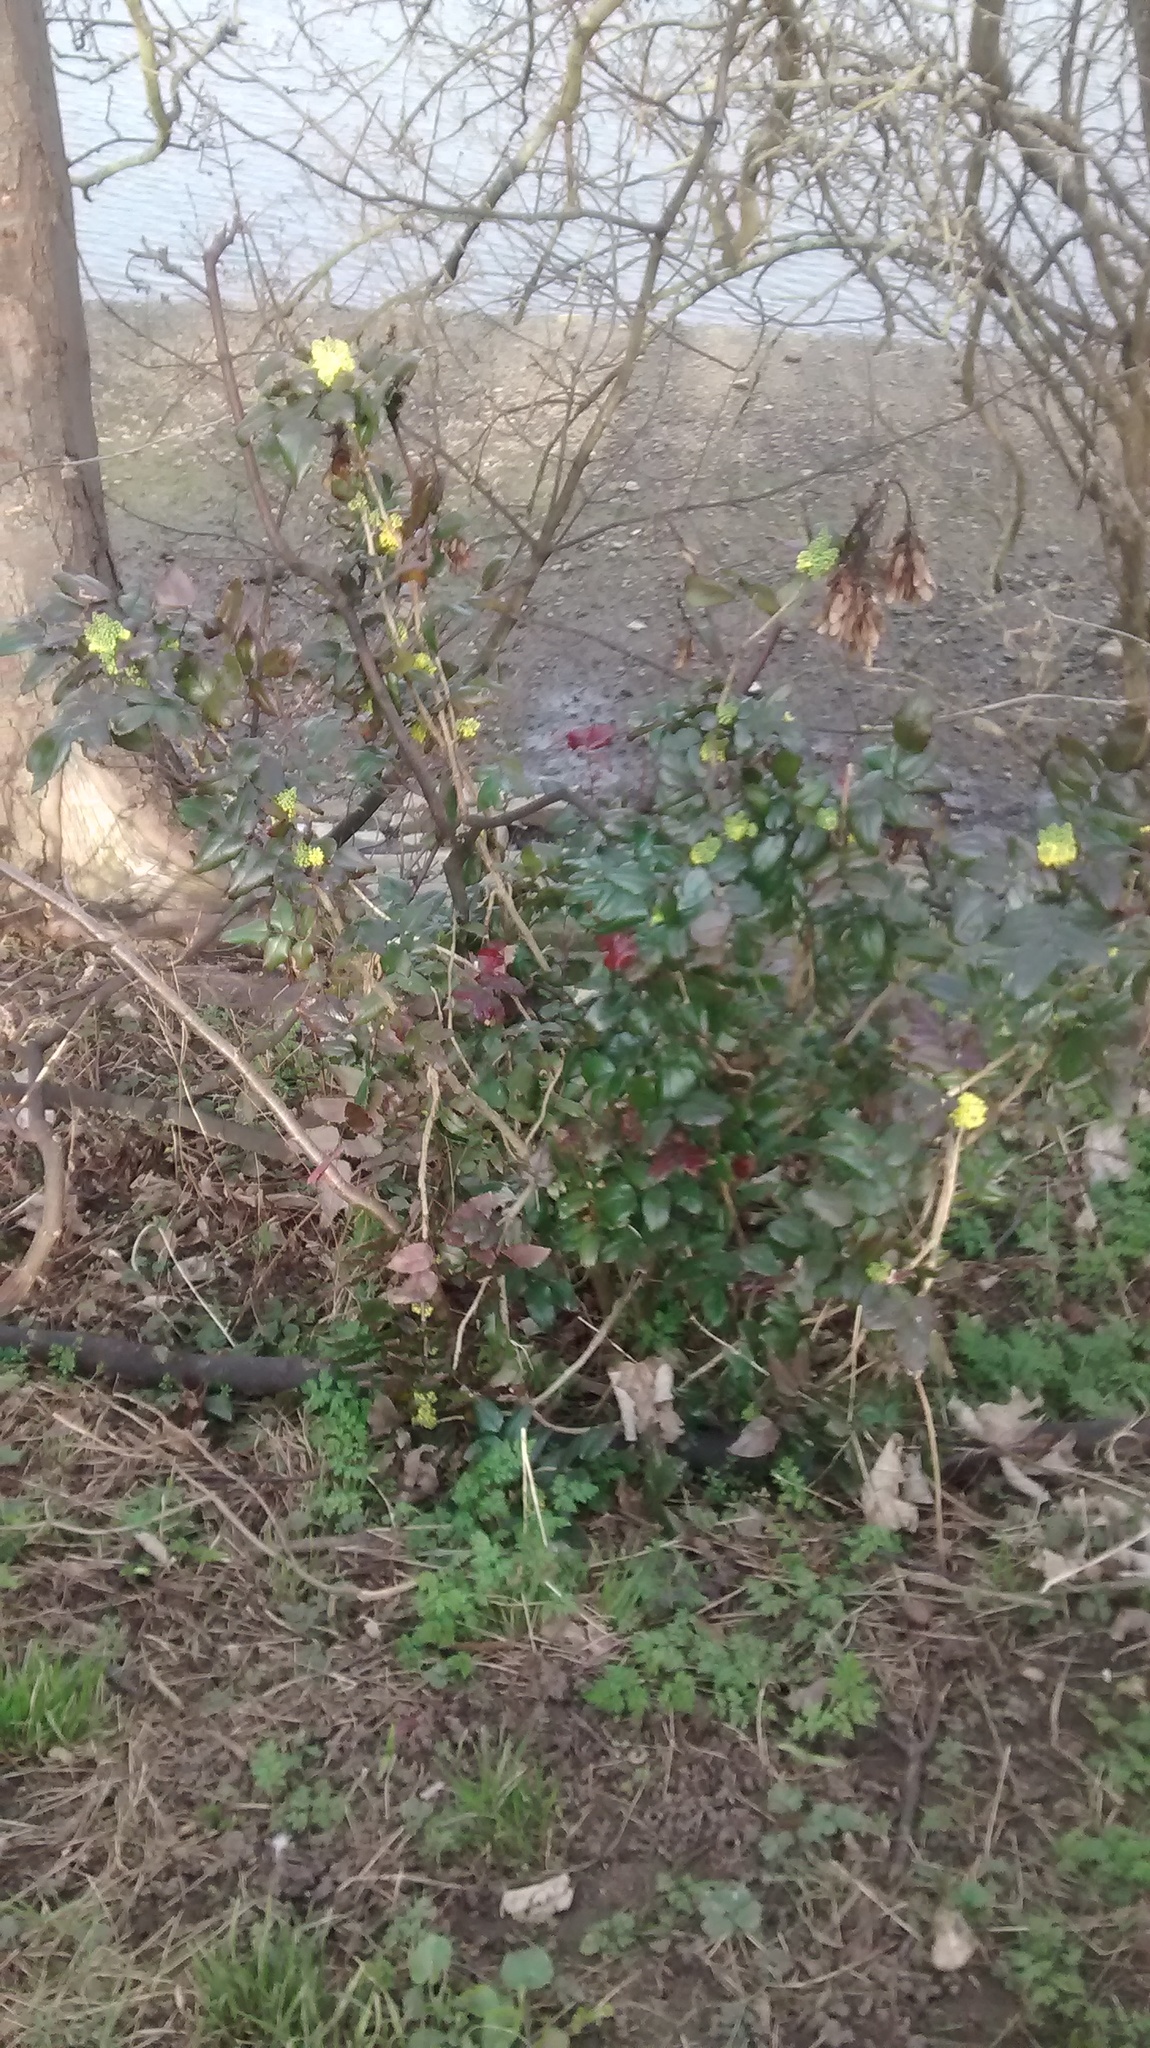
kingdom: Plantae
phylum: Tracheophyta
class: Magnoliopsida
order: Ranunculales
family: Berberidaceae
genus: Mahonia
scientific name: Mahonia aquifolium
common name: Oregon-grape
